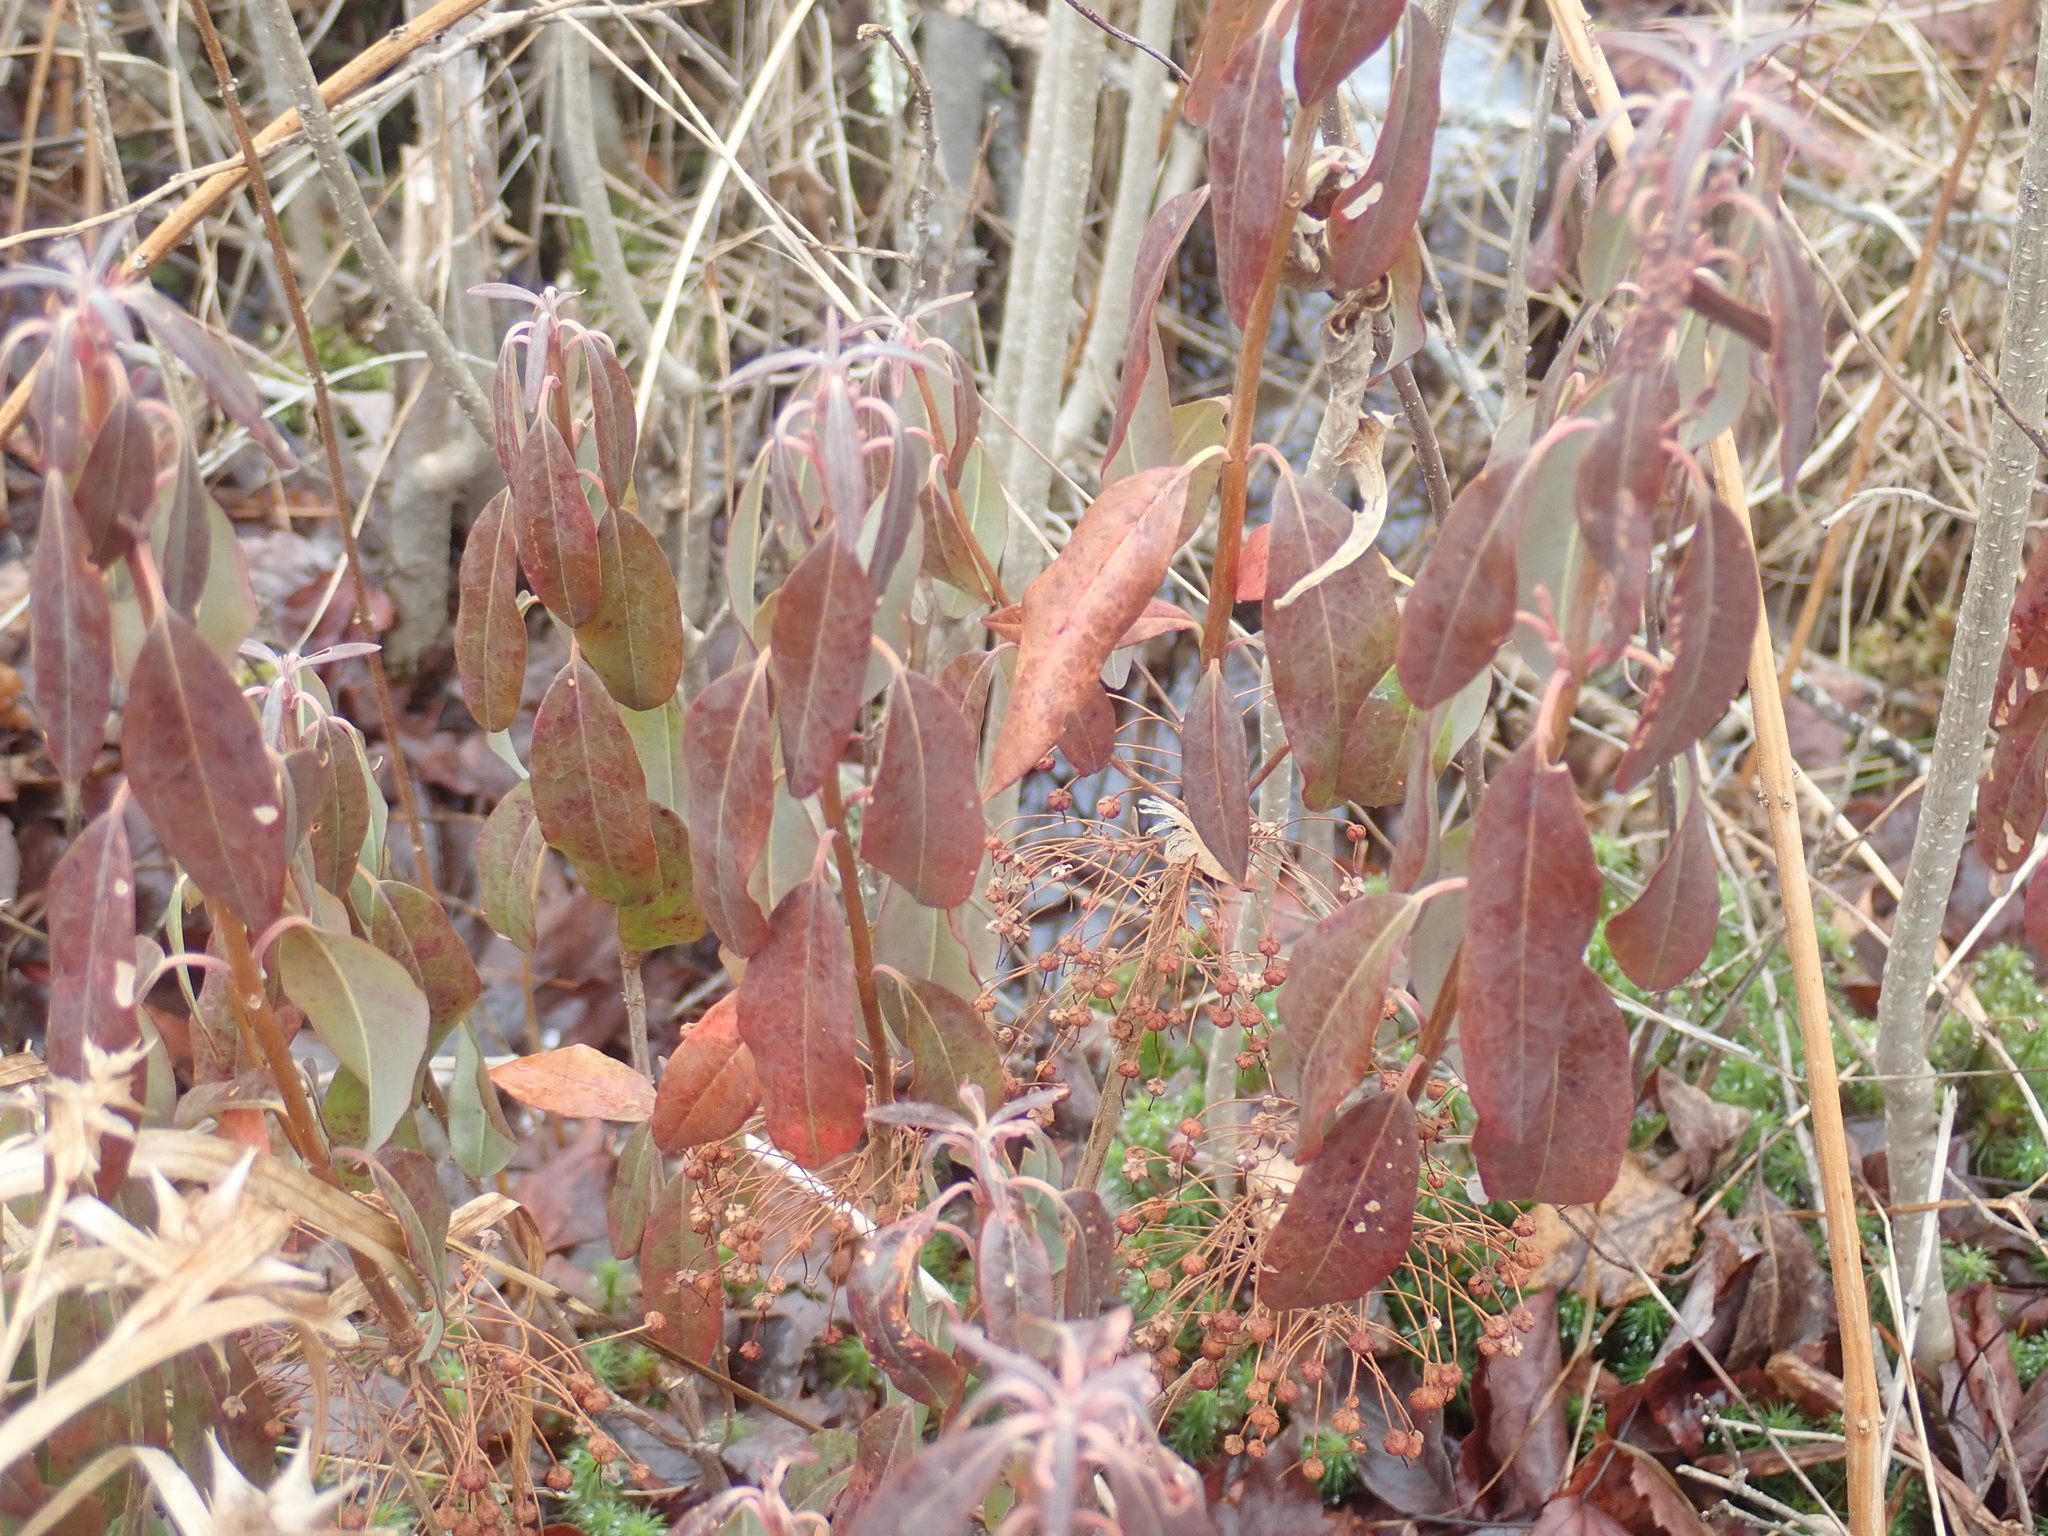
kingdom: Plantae
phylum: Tracheophyta
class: Magnoliopsida
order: Ericales
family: Ericaceae
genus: Kalmia
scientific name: Kalmia angustifolia
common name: Sheep-laurel
